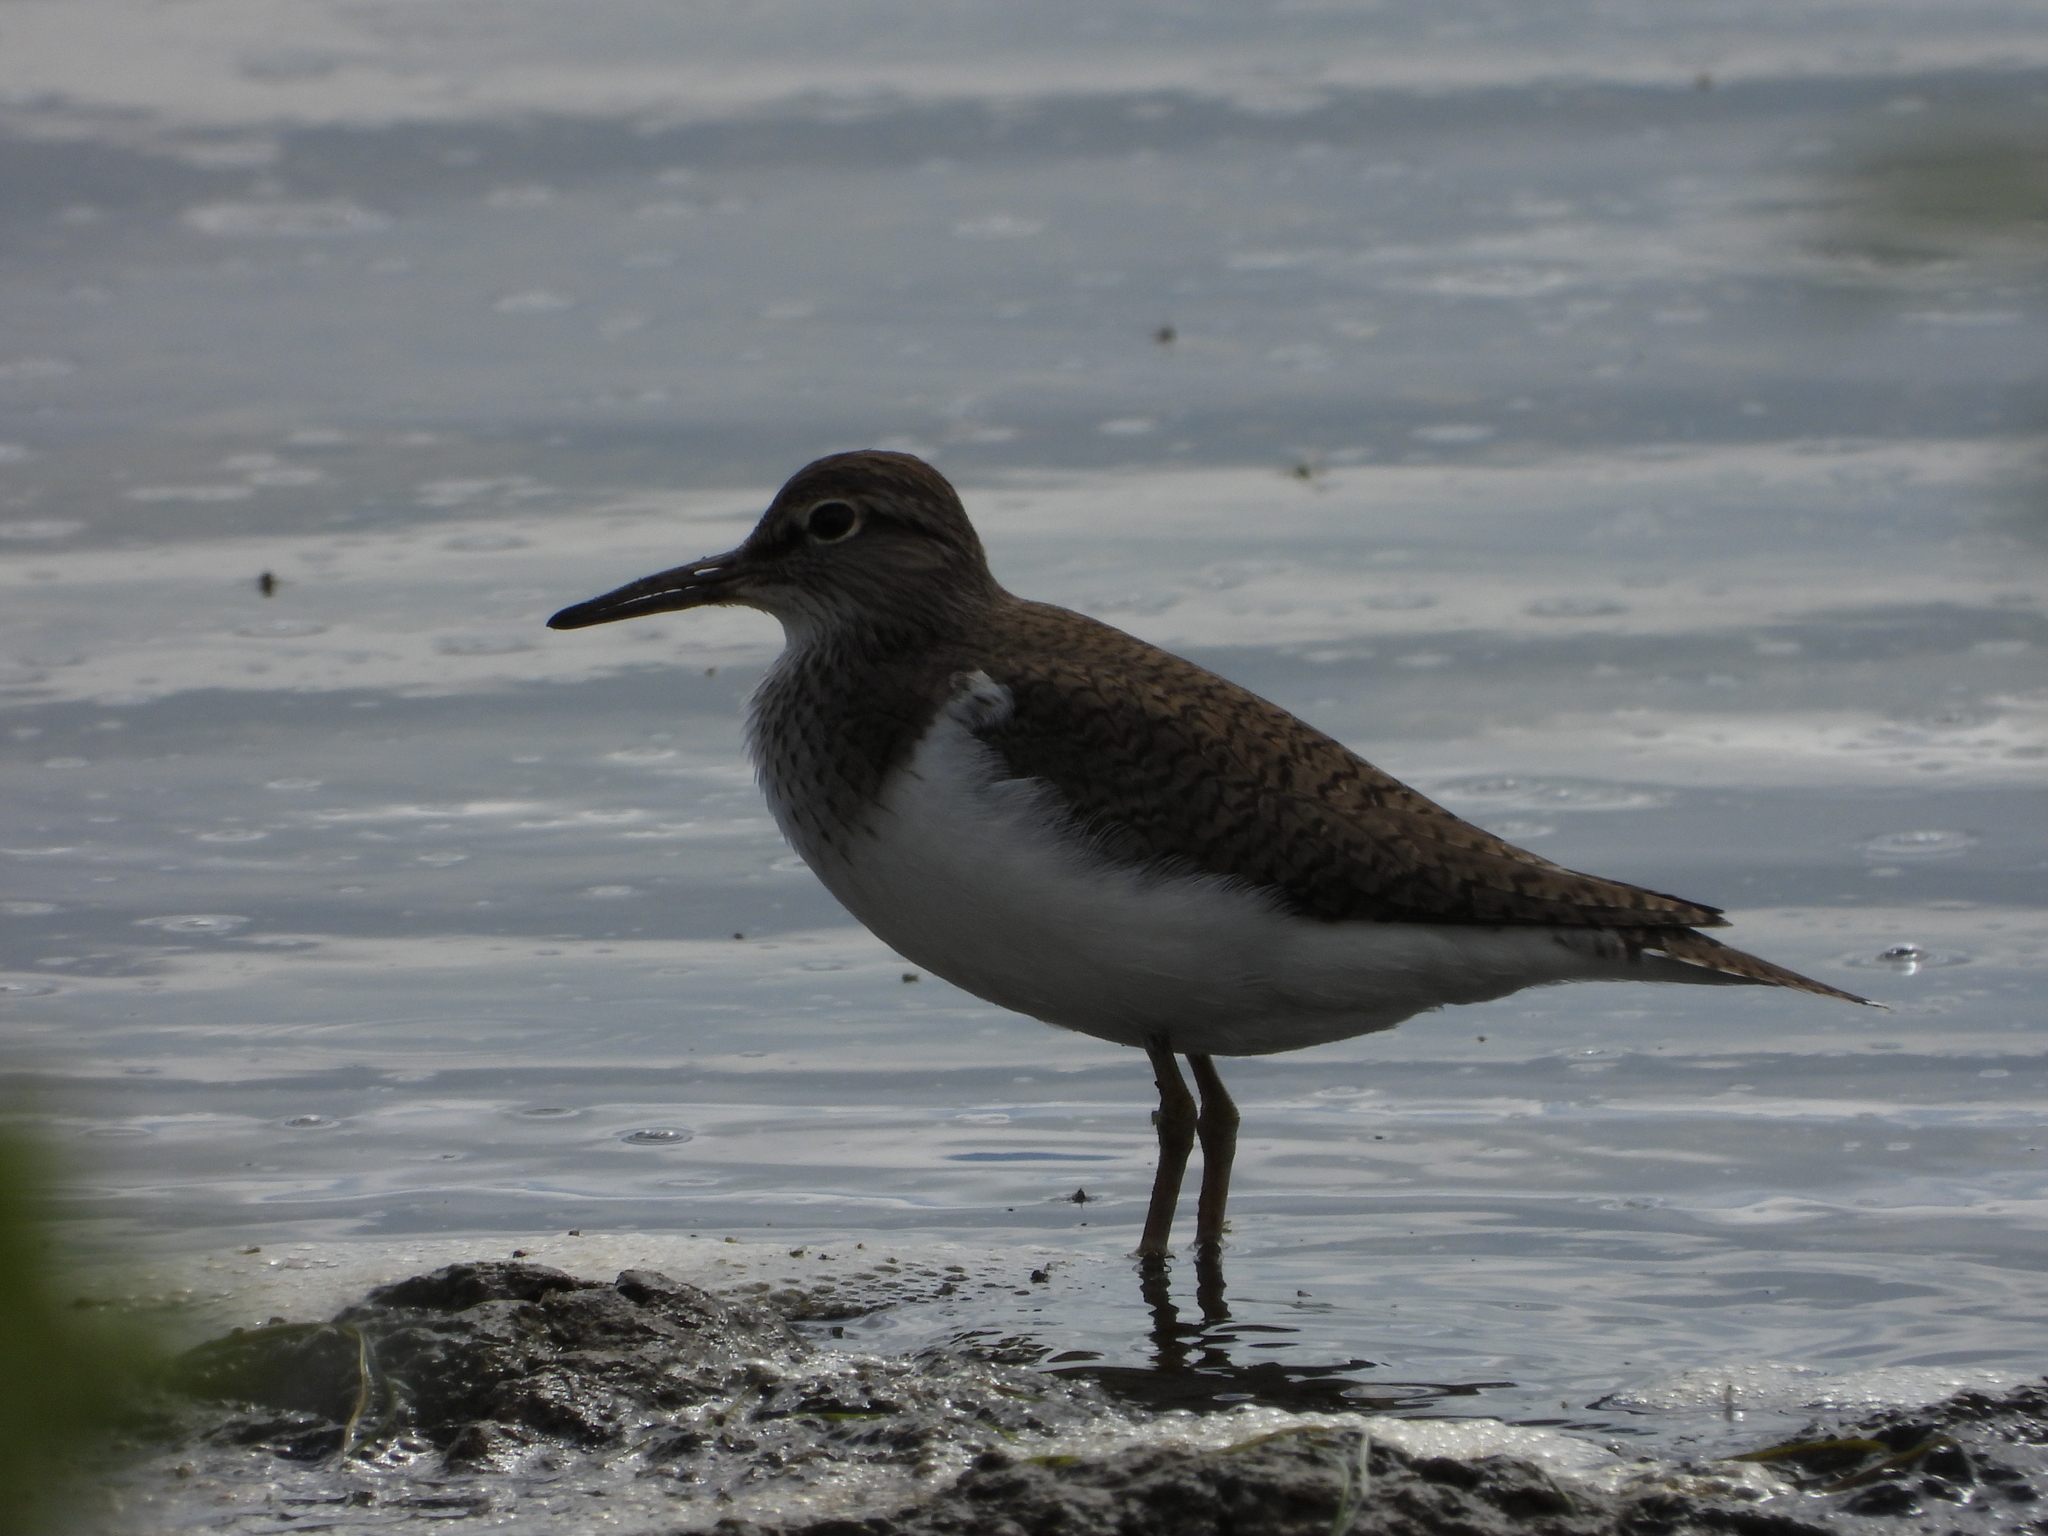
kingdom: Animalia
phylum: Chordata
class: Aves
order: Charadriiformes
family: Scolopacidae
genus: Actitis
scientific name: Actitis hypoleucos
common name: Common sandpiper
